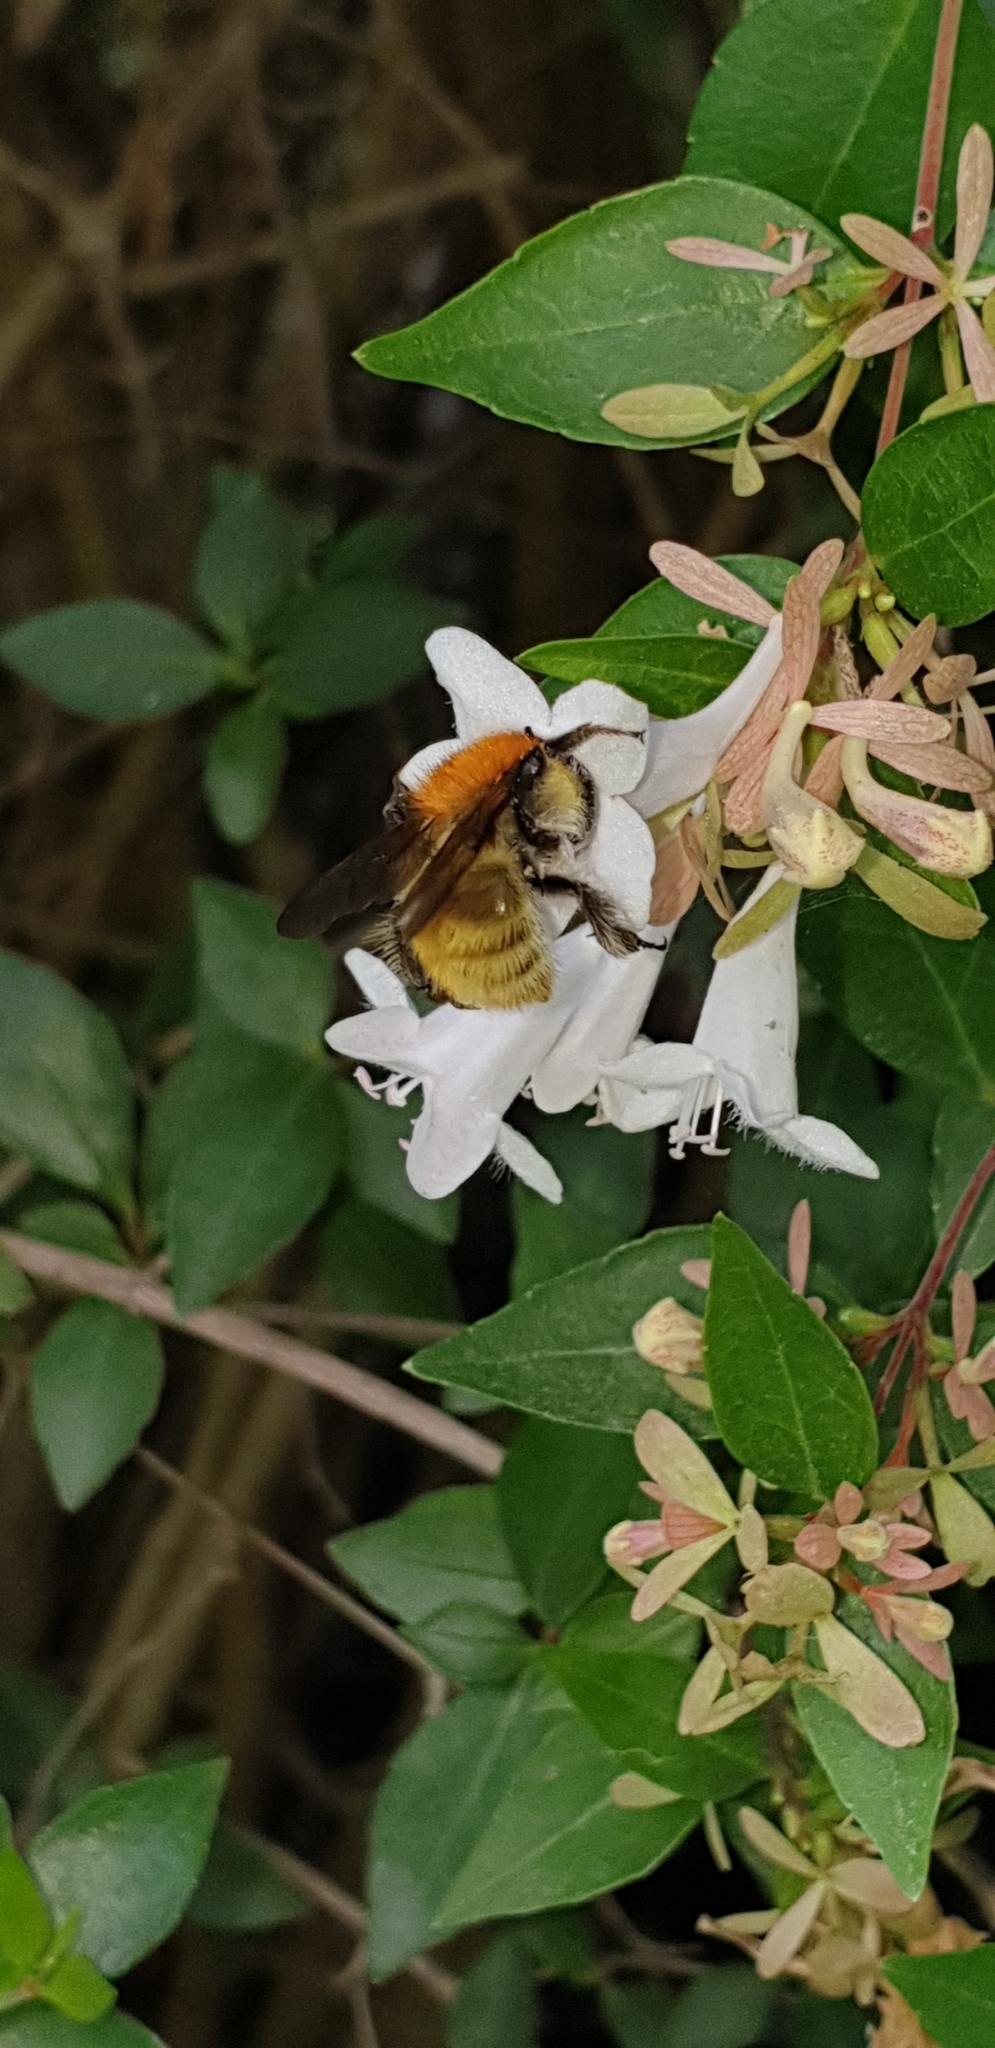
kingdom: Animalia
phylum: Arthropoda
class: Insecta
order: Hymenoptera
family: Apidae
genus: Bombus
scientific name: Bombus pascuorum
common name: Common carder bee
